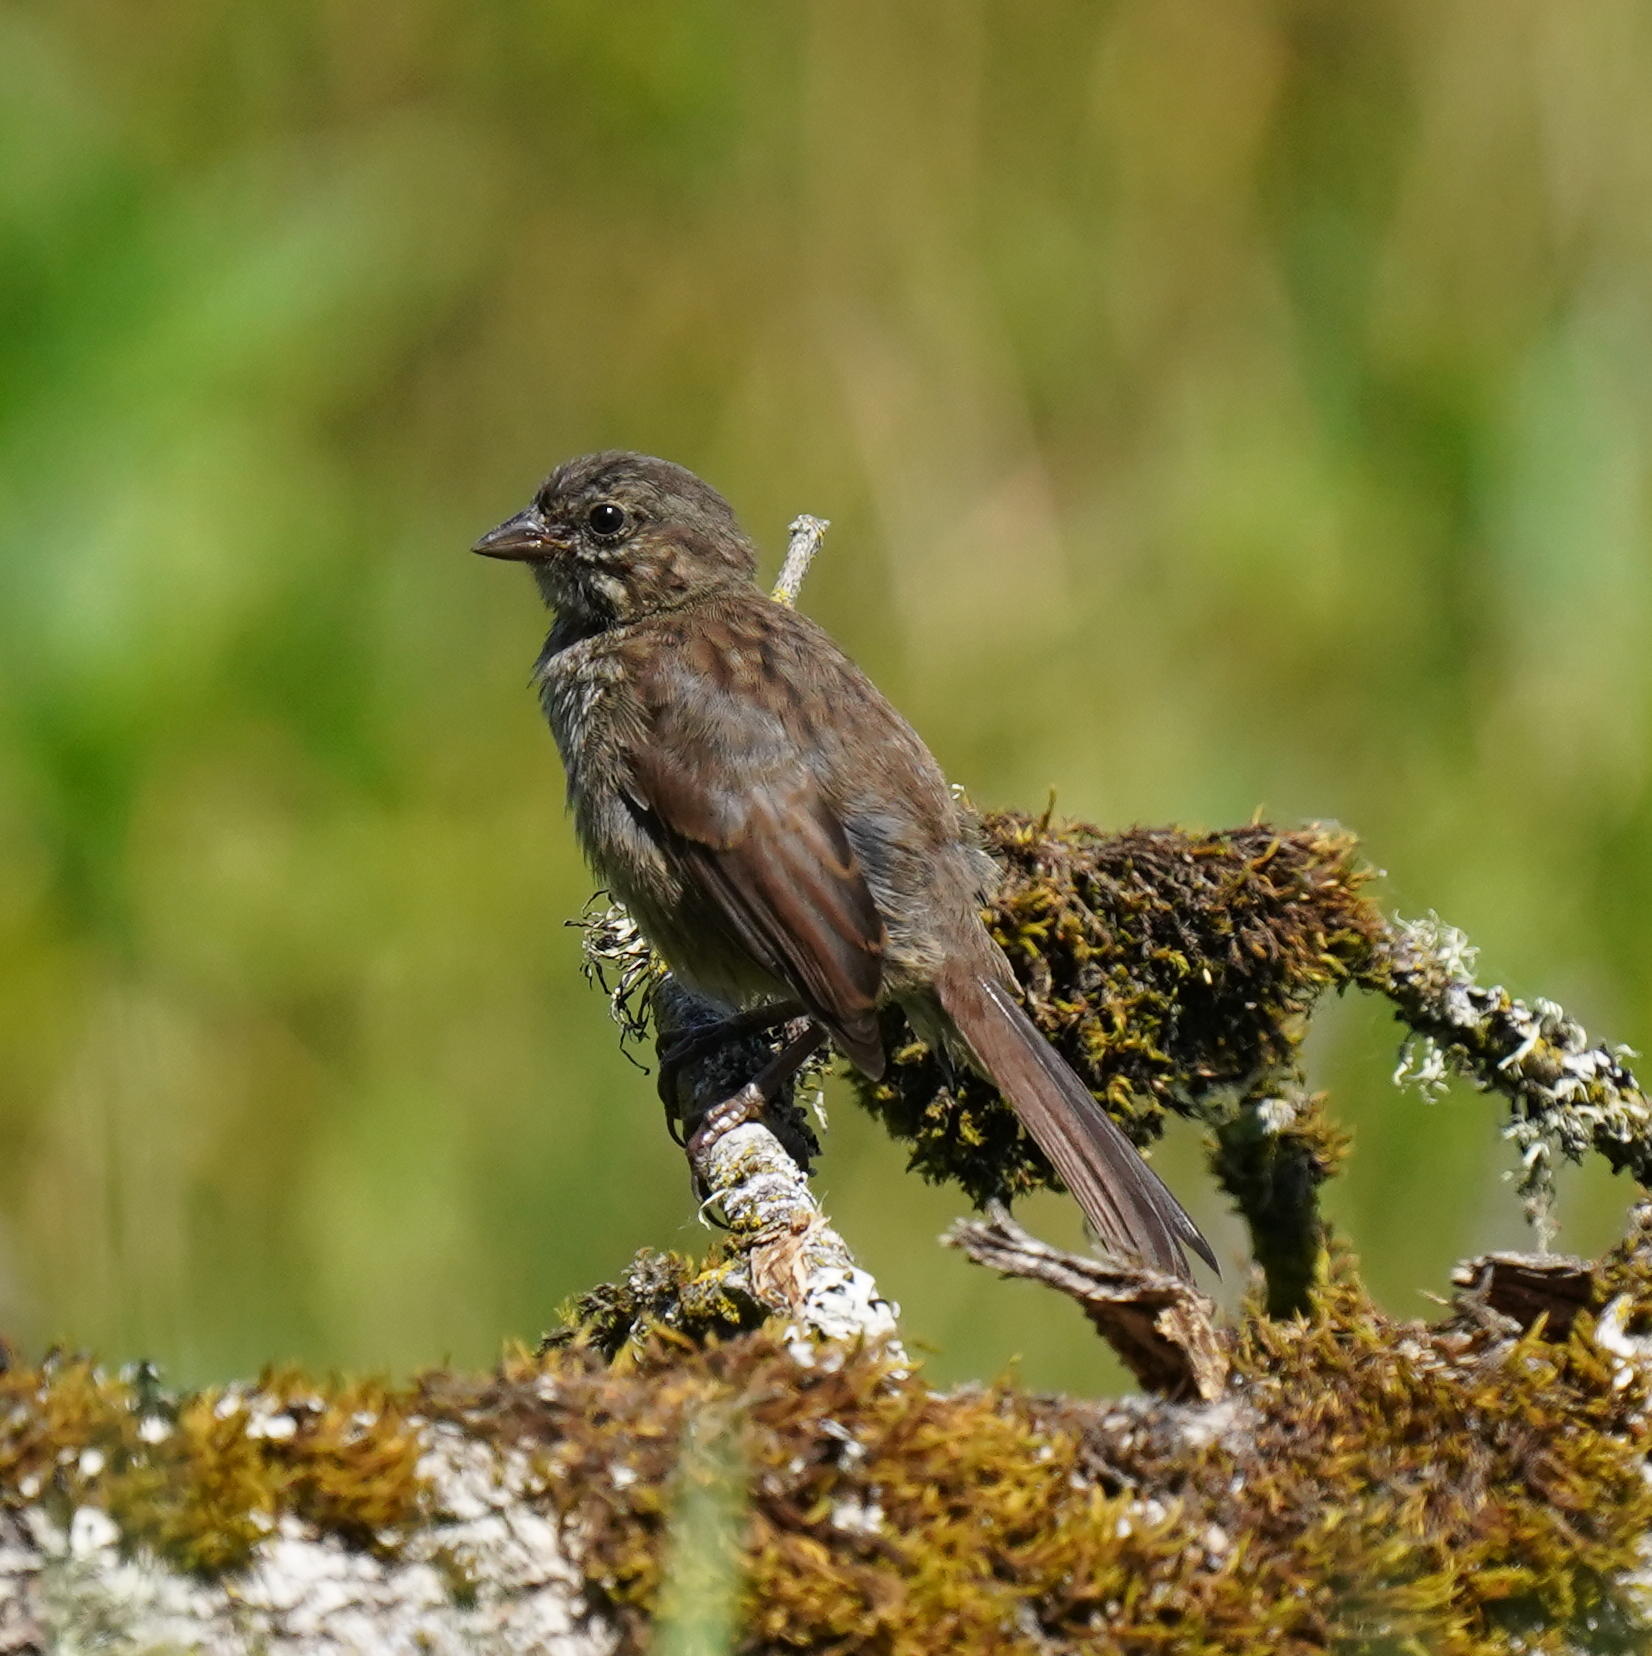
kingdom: Animalia
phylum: Chordata
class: Aves
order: Passeriformes
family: Passerellidae
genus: Melospiza
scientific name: Melospiza melodia
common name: Song sparrow
